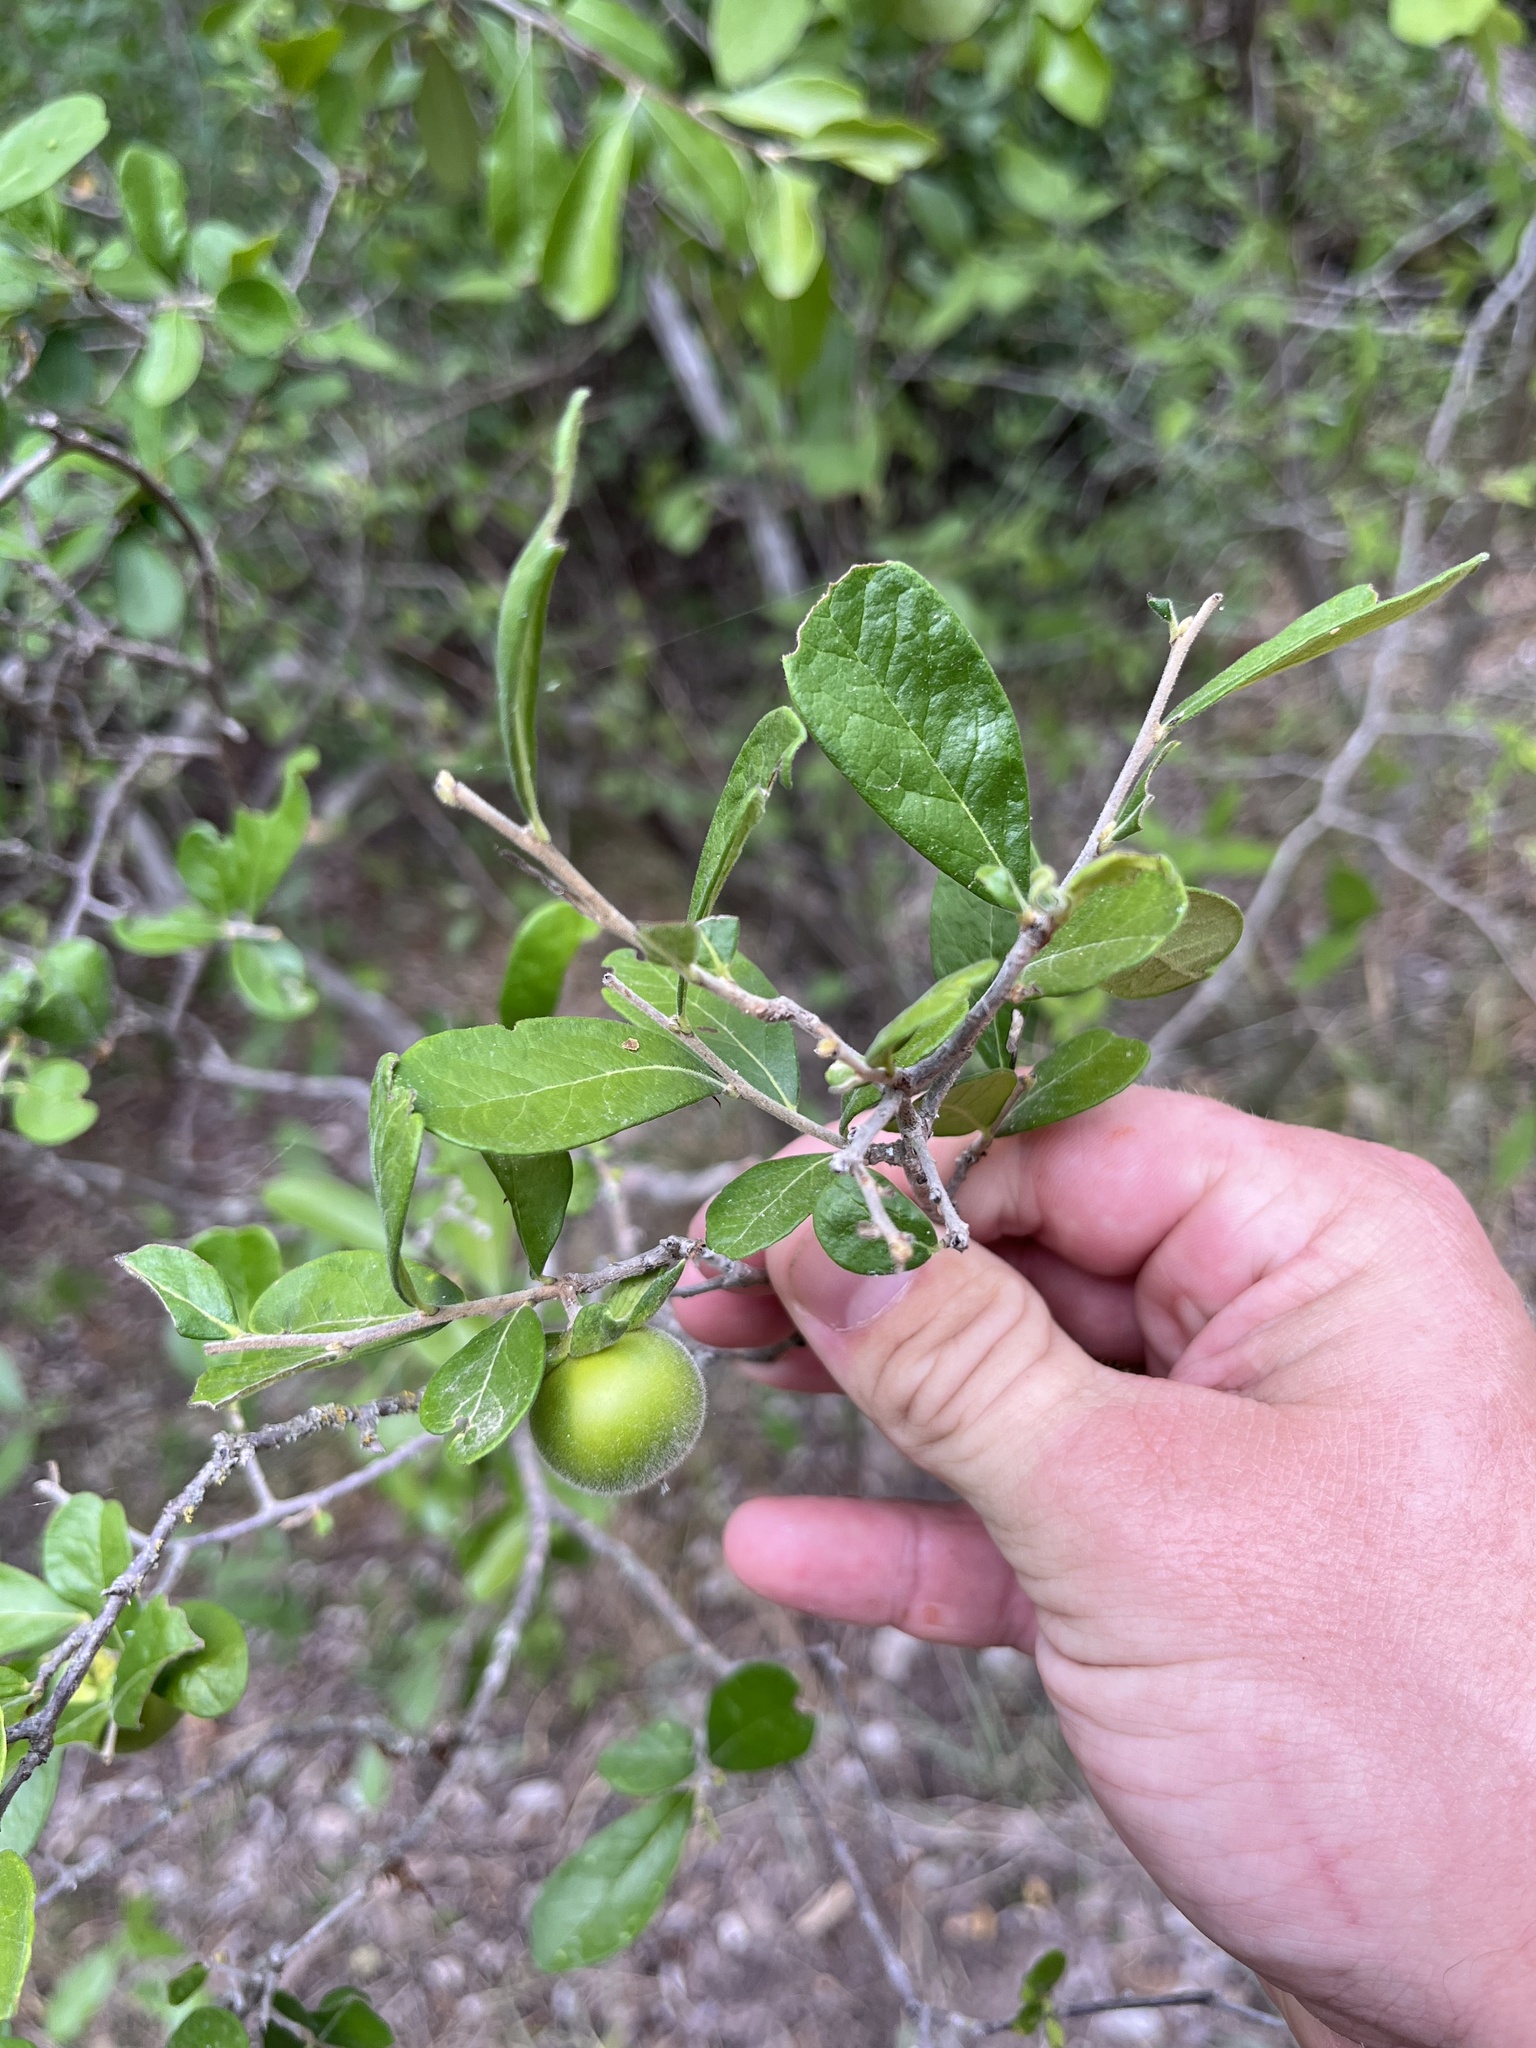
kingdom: Plantae
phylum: Tracheophyta
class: Magnoliopsida
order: Ericales
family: Ebenaceae
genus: Diospyros
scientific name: Diospyros texana
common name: Texas persimmon
